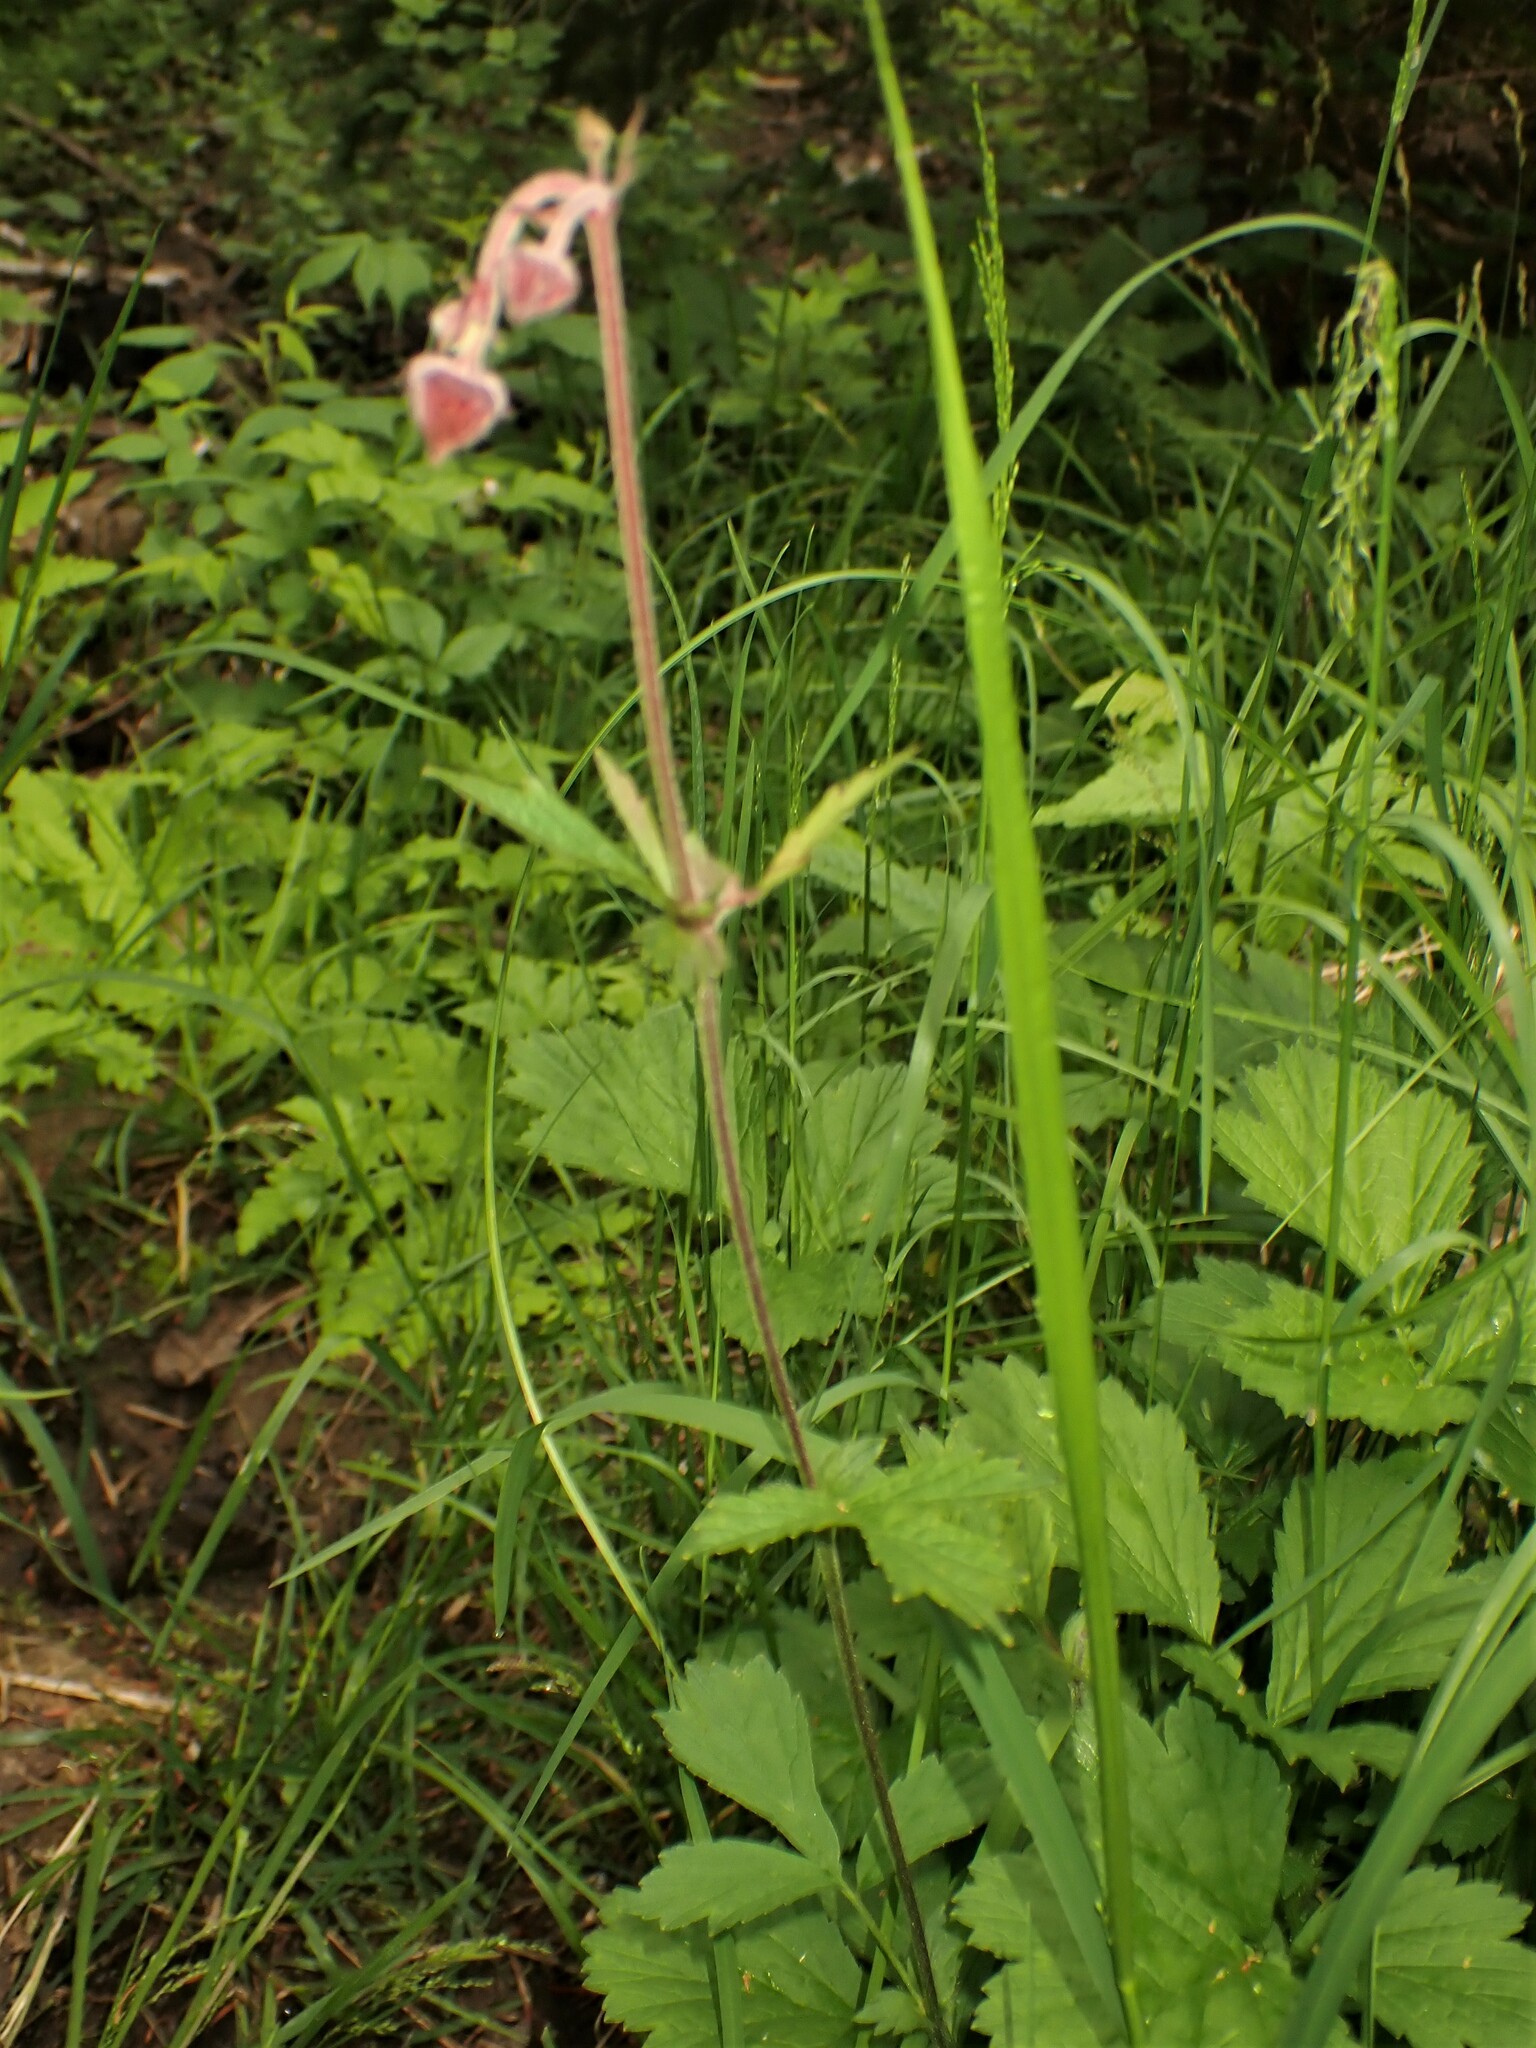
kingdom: Plantae
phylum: Tracheophyta
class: Magnoliopsida
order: Rosales
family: Rosaceae
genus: Geum
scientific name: Geum rivale
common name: Water avens
